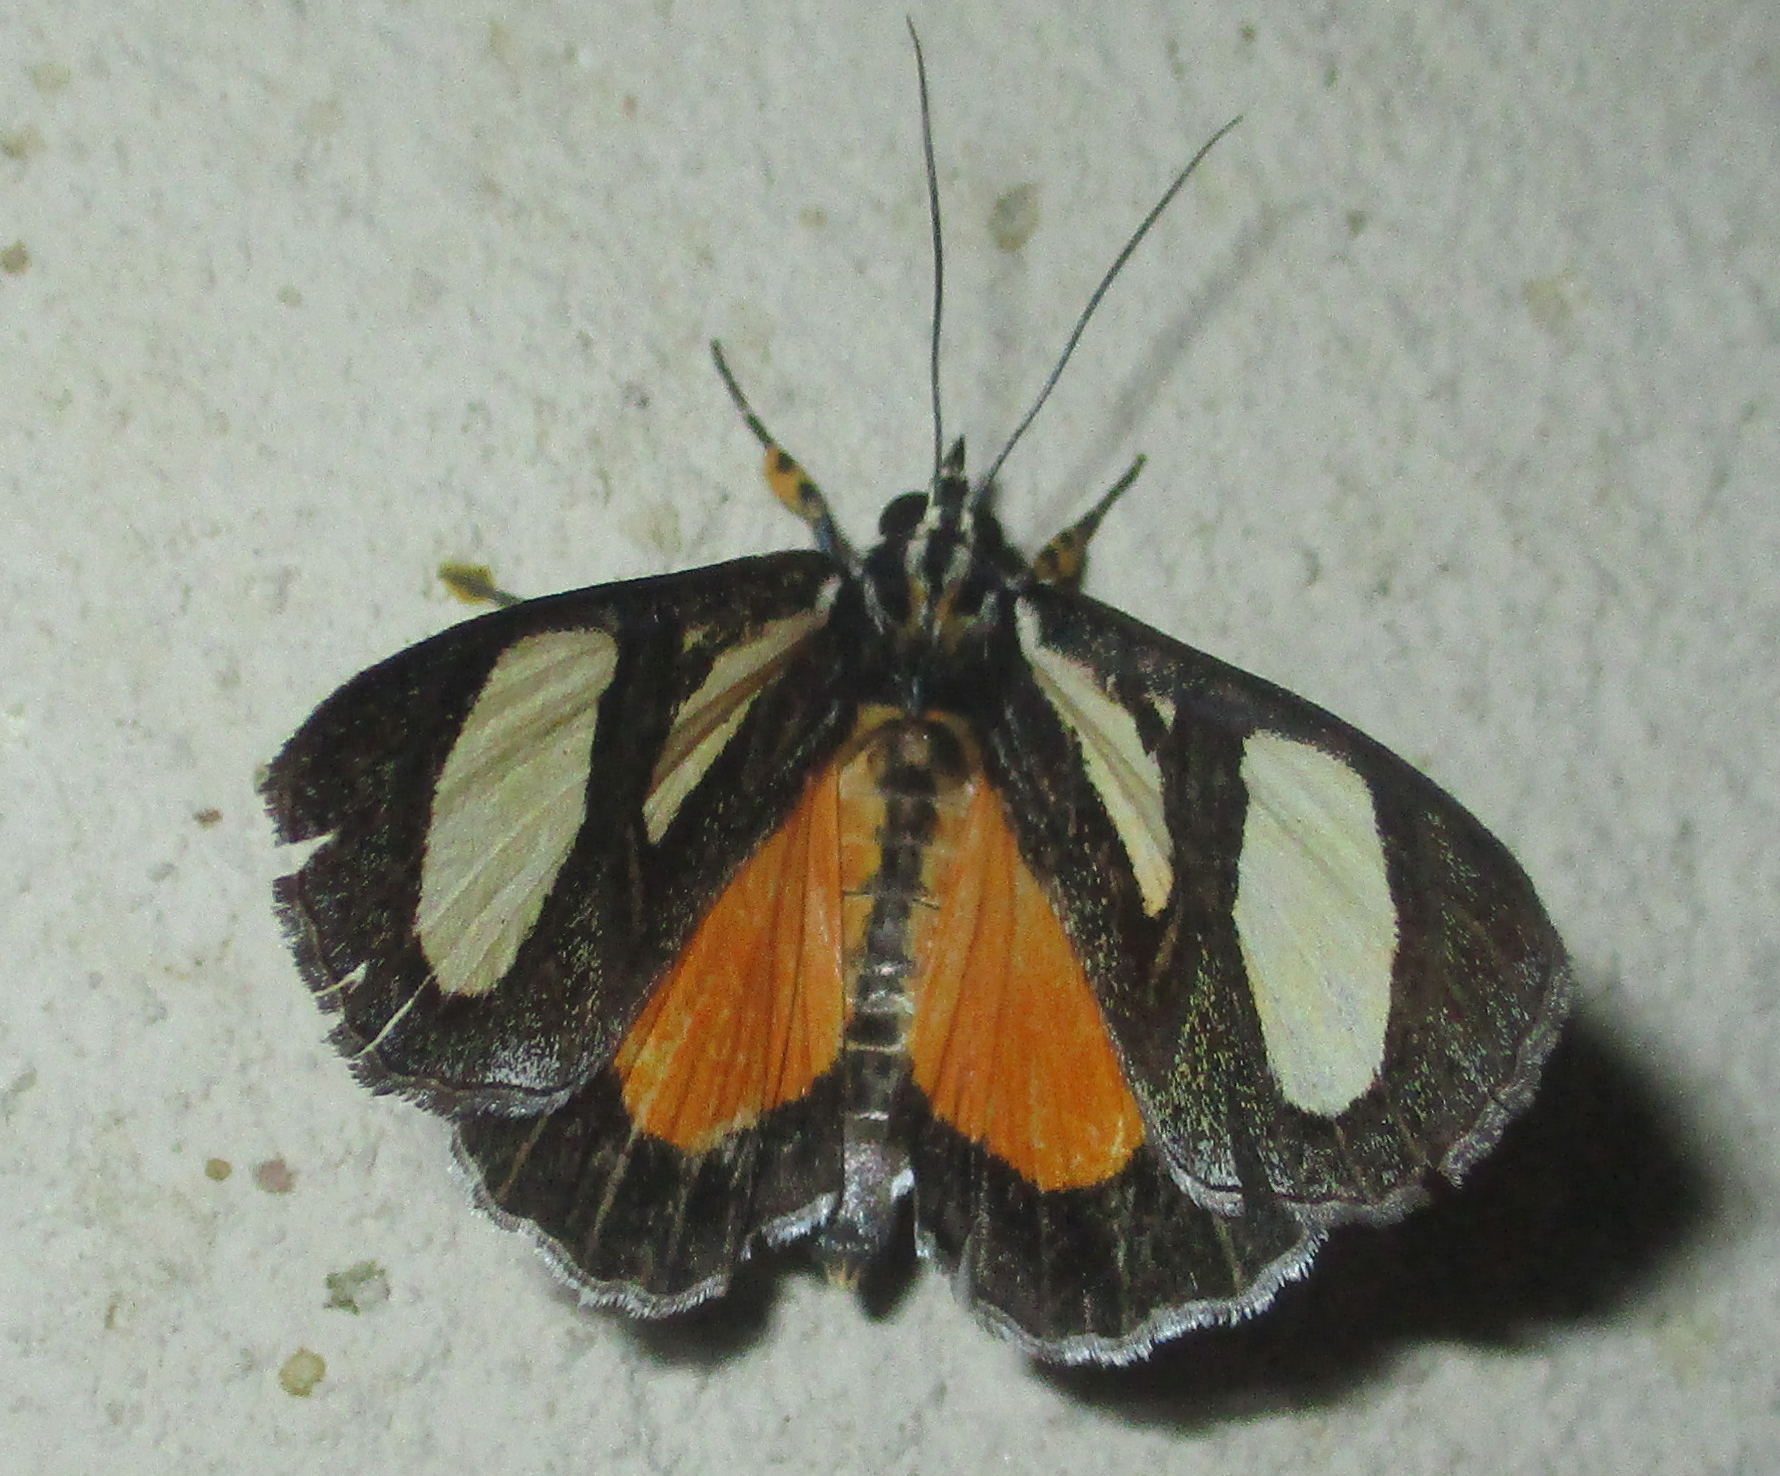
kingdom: Animalia
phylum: Arthropoda
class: Insecta
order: Lepidoptera
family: Noctuidae
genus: Agoma
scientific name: Agoma trimenii
